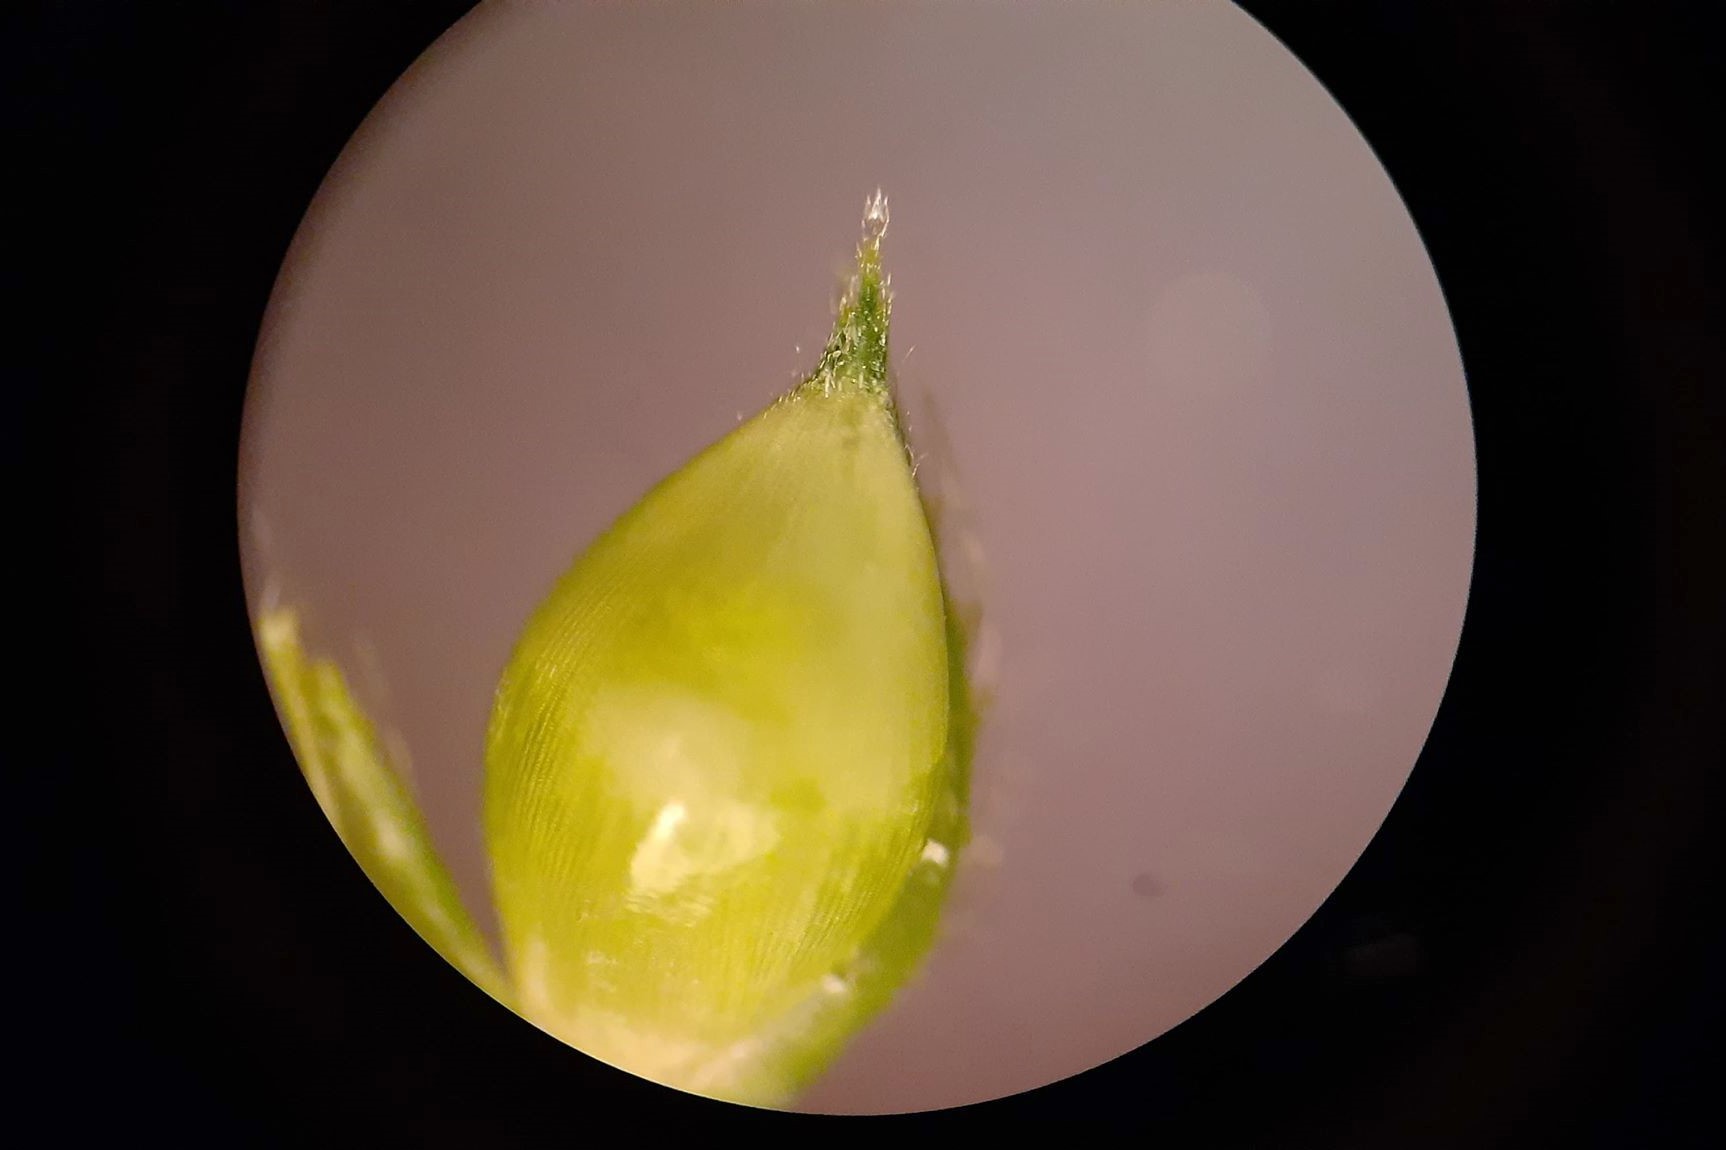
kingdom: Plantae
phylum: Tracheophyta
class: Liliopsida
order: Poales
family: Poaceae
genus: Echinochloa
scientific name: Echinochloa crus-galli
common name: Cockspur
